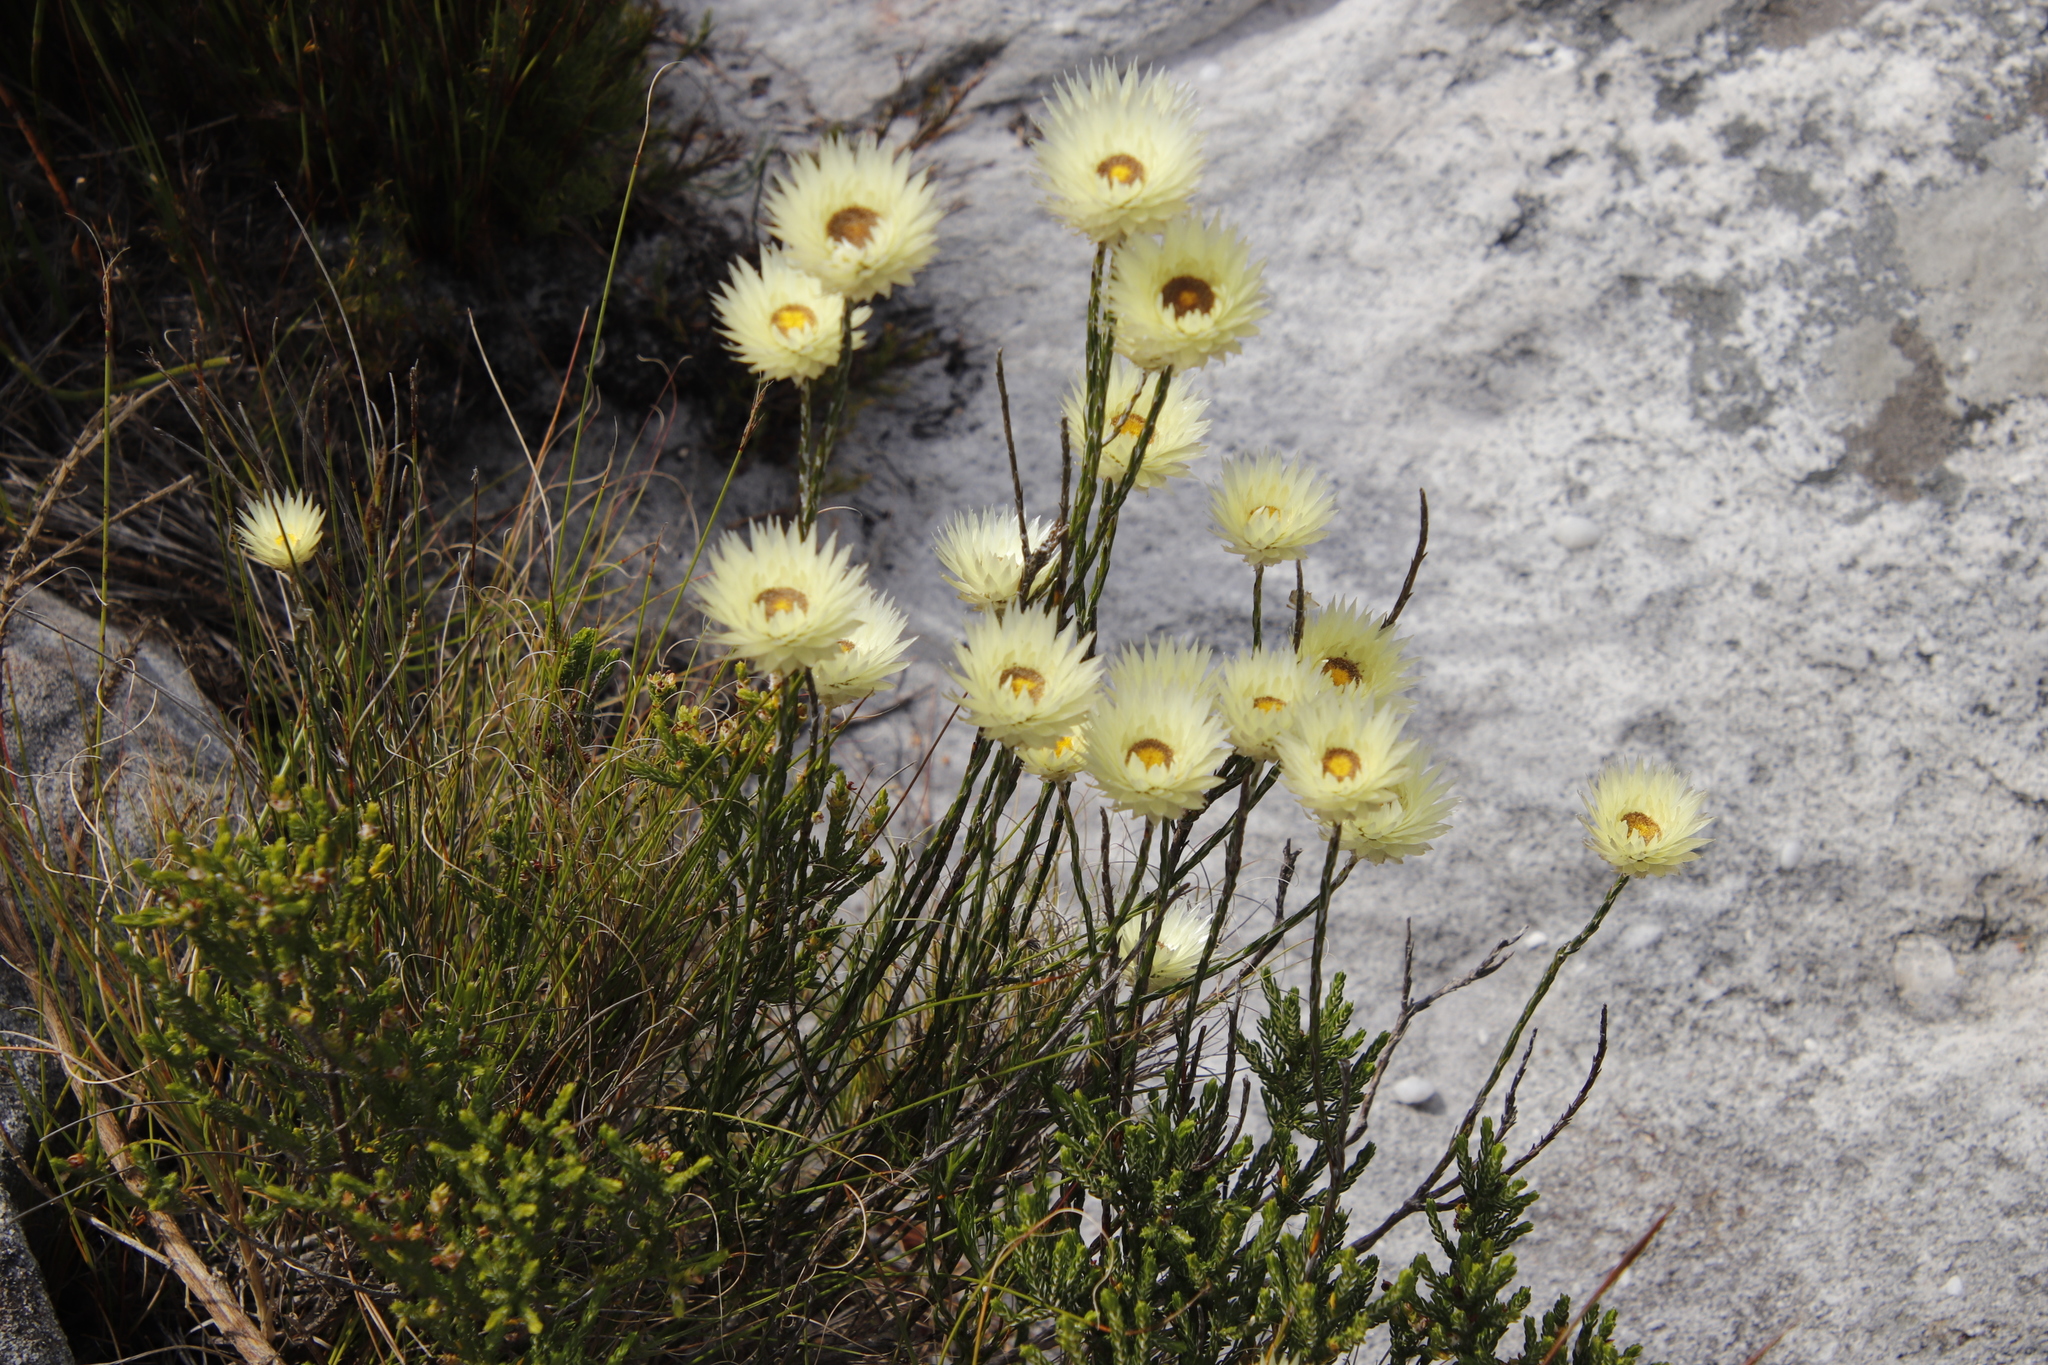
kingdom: Plantae
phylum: Tracheophyta
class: Magnoliopsida
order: Asterales
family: Asteraceae
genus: Edmondia
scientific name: Edmondia sesamoides
